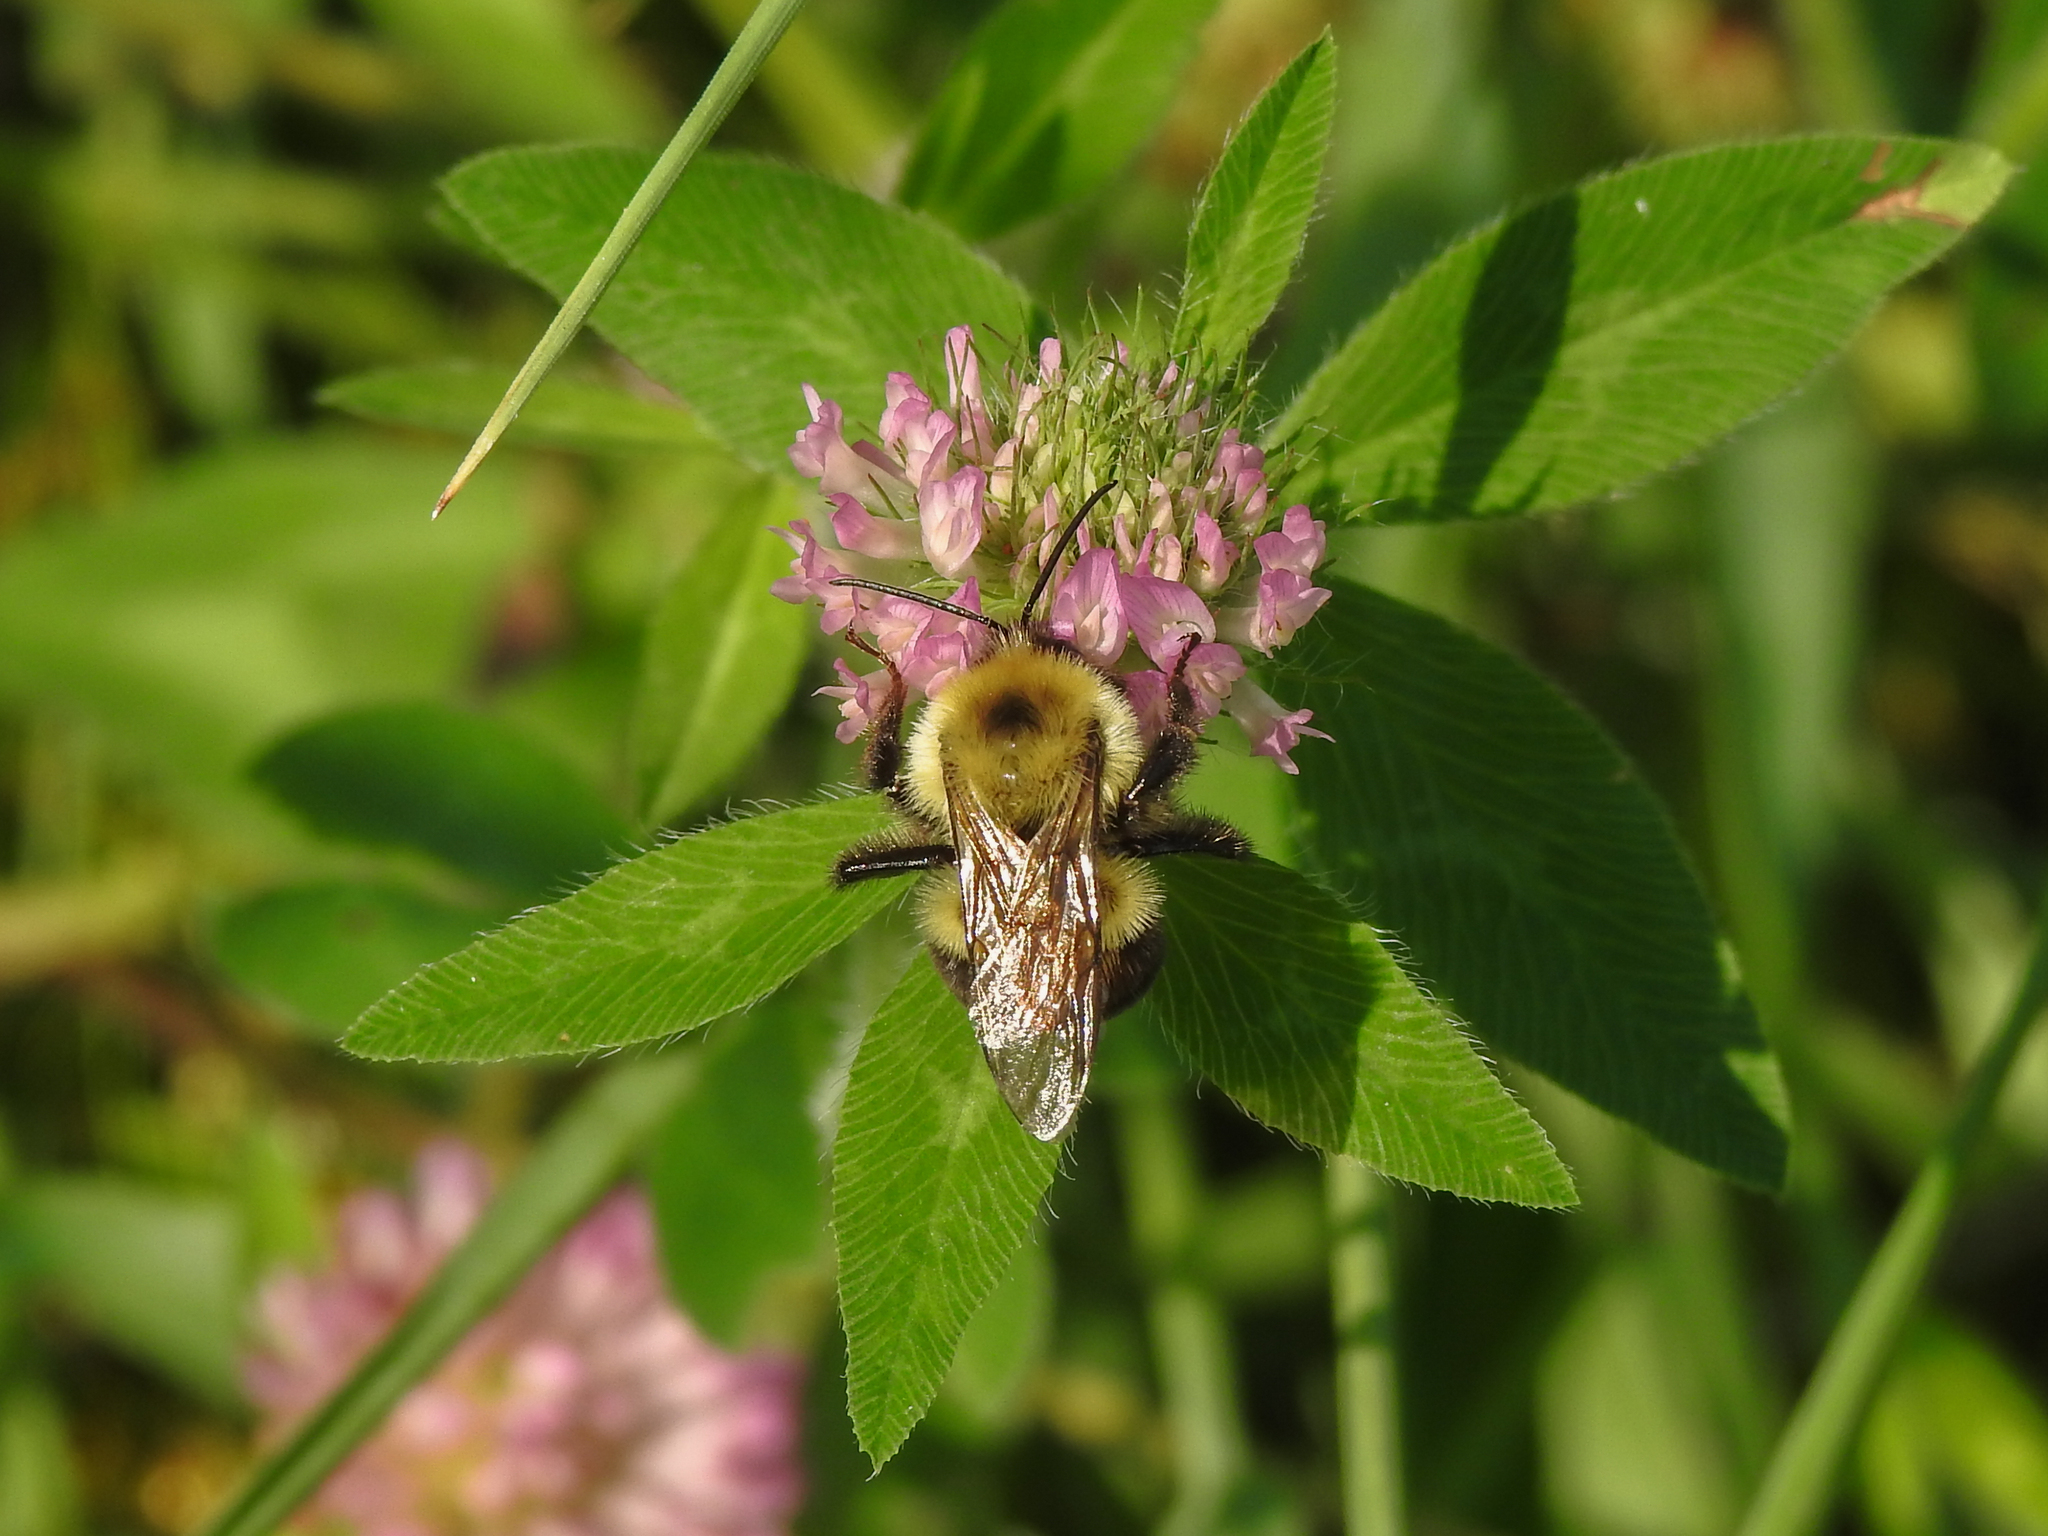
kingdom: Animalia
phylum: Arthropoda
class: Insecta
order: Hymenoptera
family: Apidae
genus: Bombus
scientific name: Bombus bimaculatus
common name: Two-spotted bumble bee
